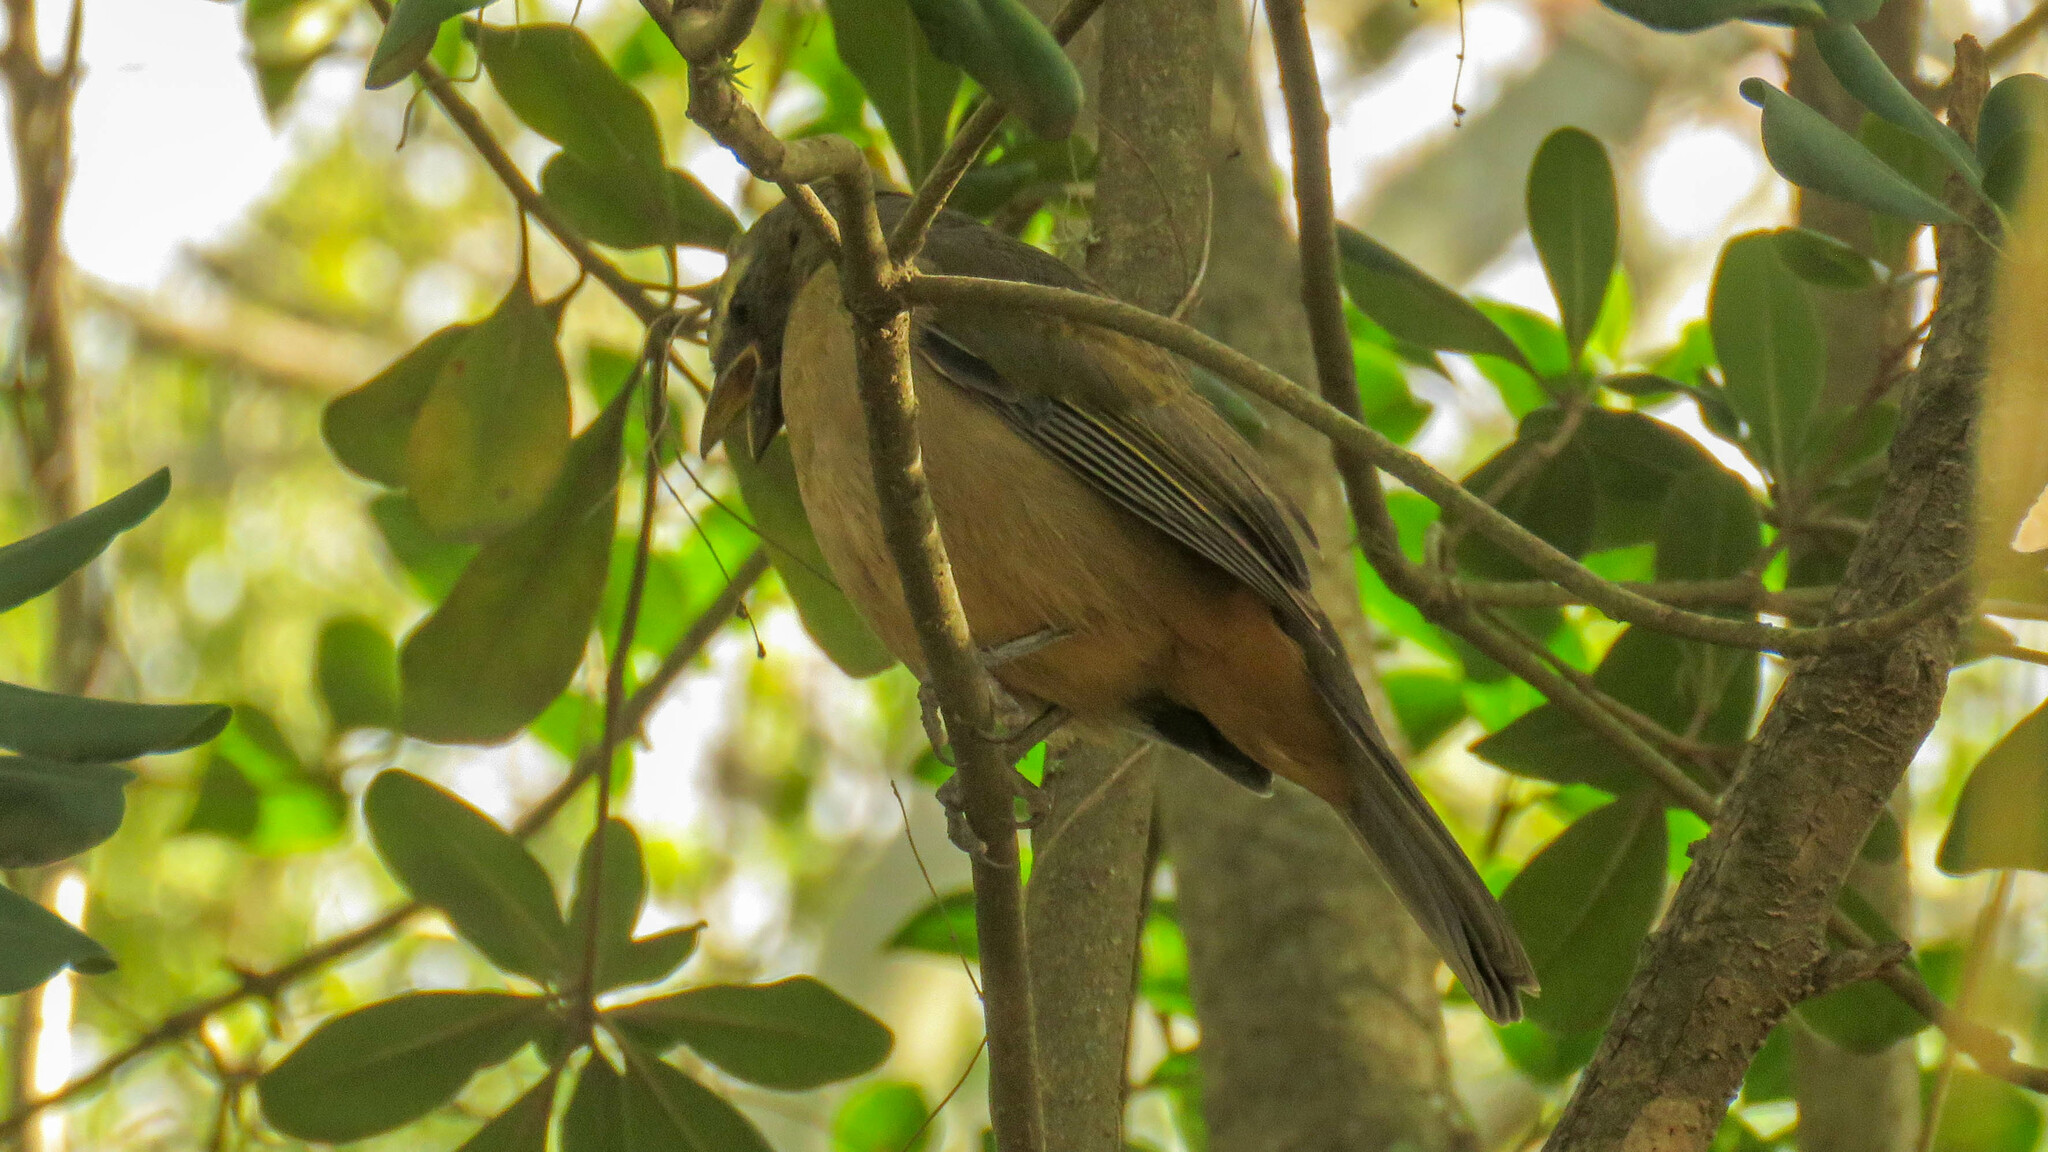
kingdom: Animalia
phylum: Chordata
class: Aves
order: Passeriformes
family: Thraupidae
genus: Saltator
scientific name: Saltator coerulescens
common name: Grayish saltator
